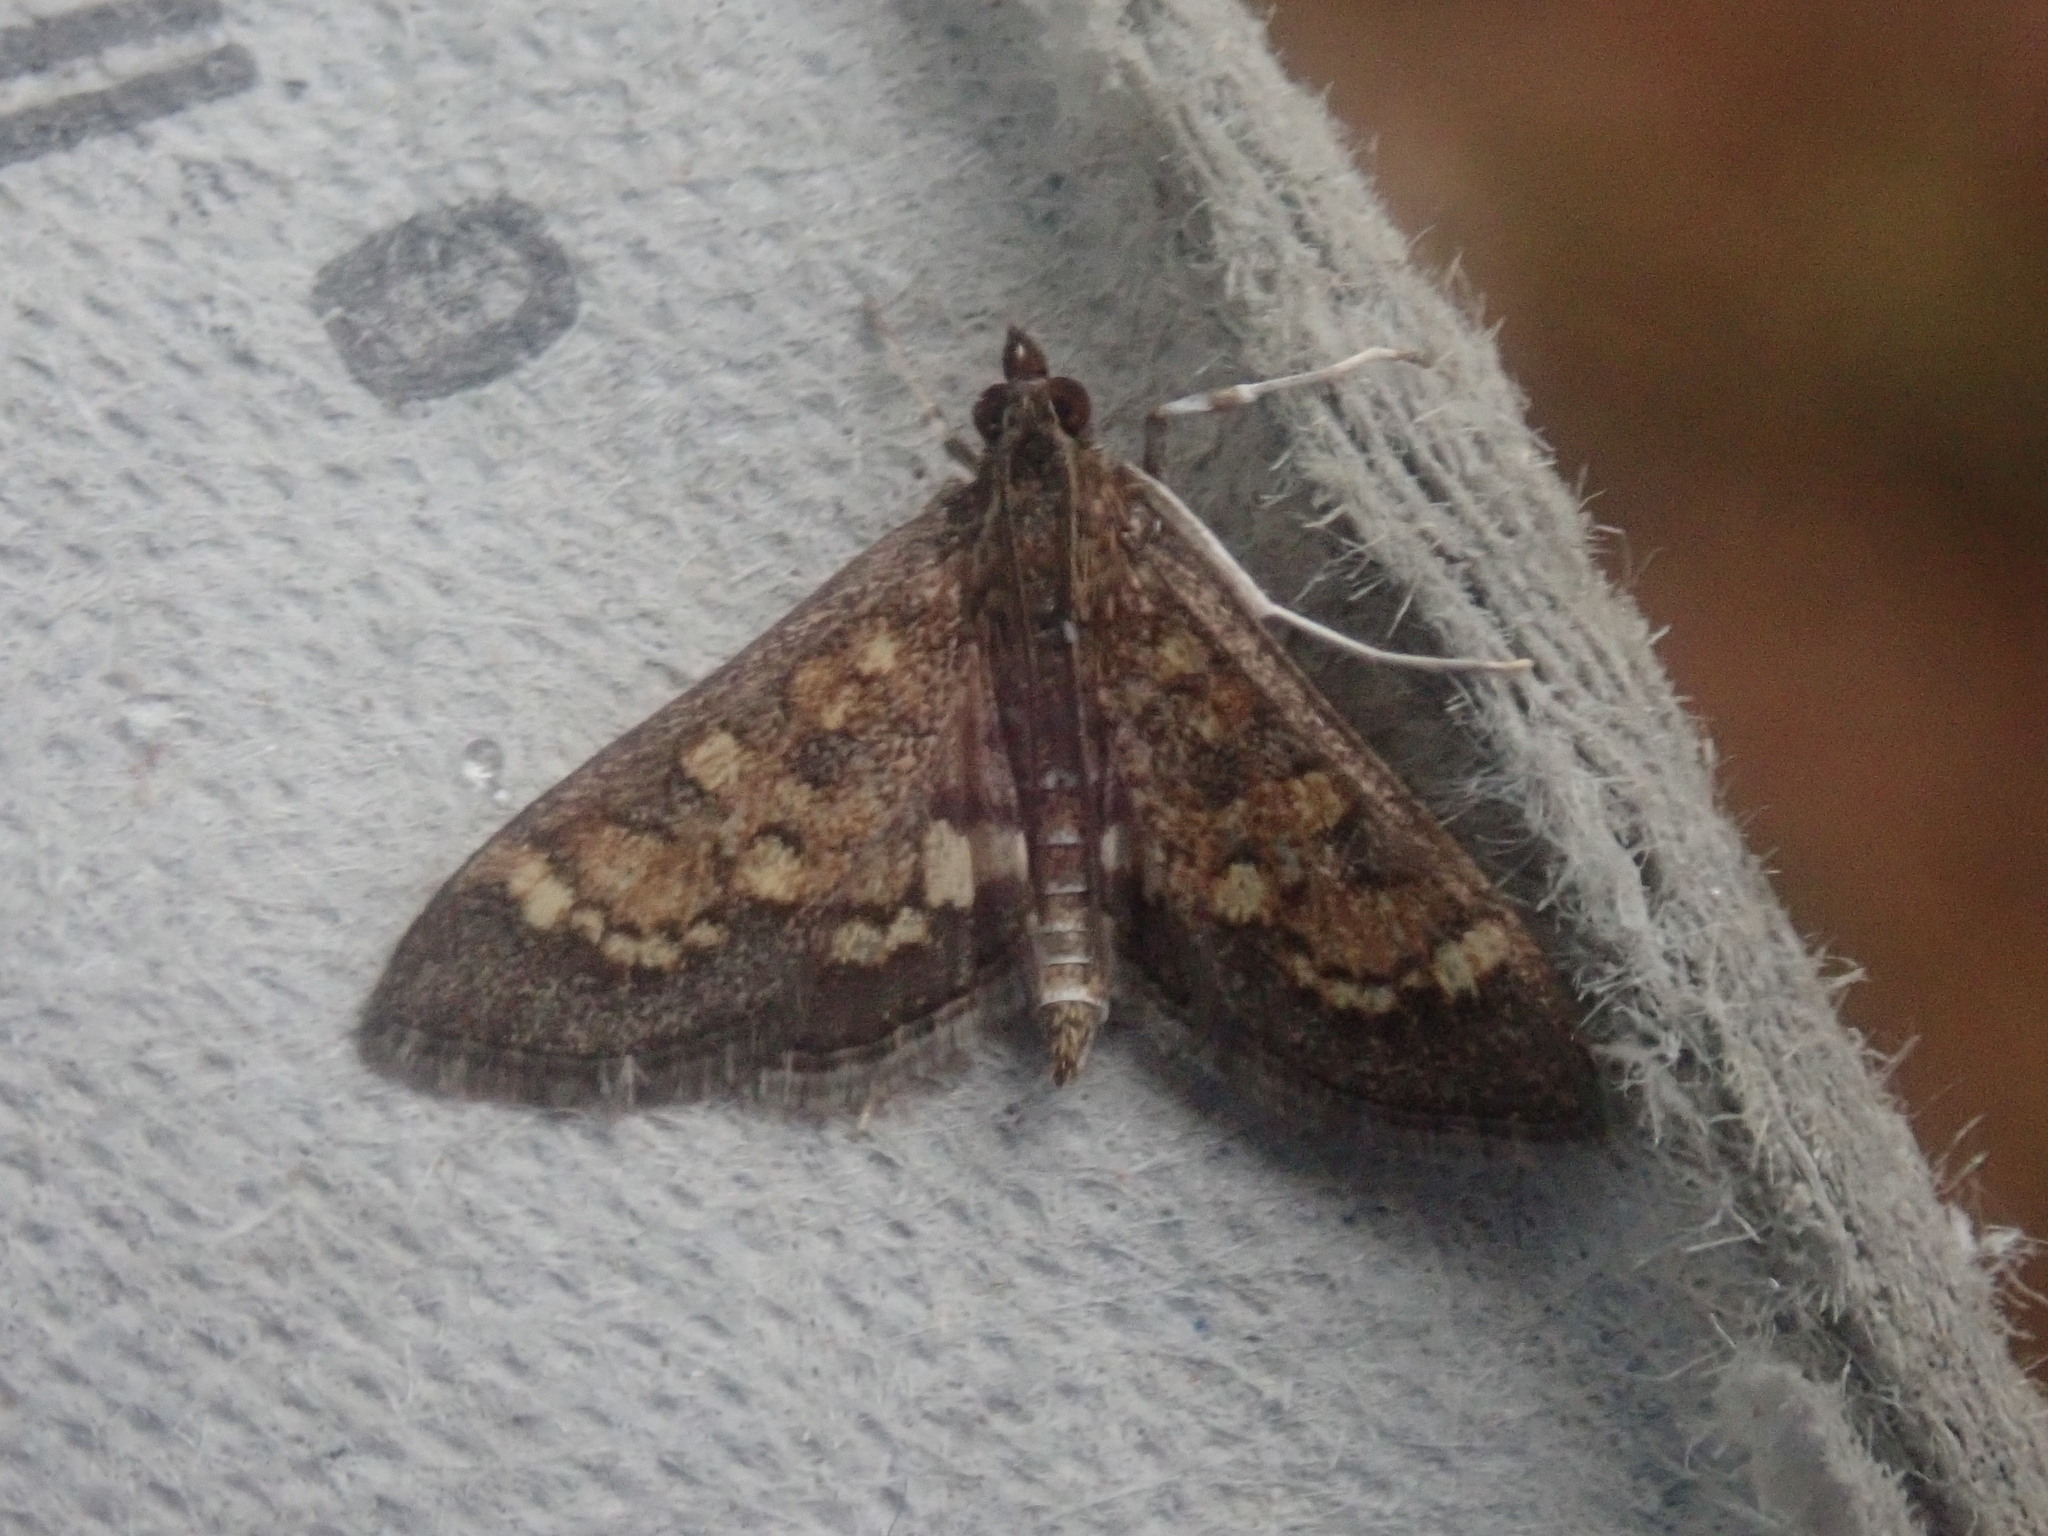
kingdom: Animalia
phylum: Arthropoda
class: Insecta
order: Lepidoptera
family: Crambidae
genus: Epipagis
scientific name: Epipagis adipaloides
